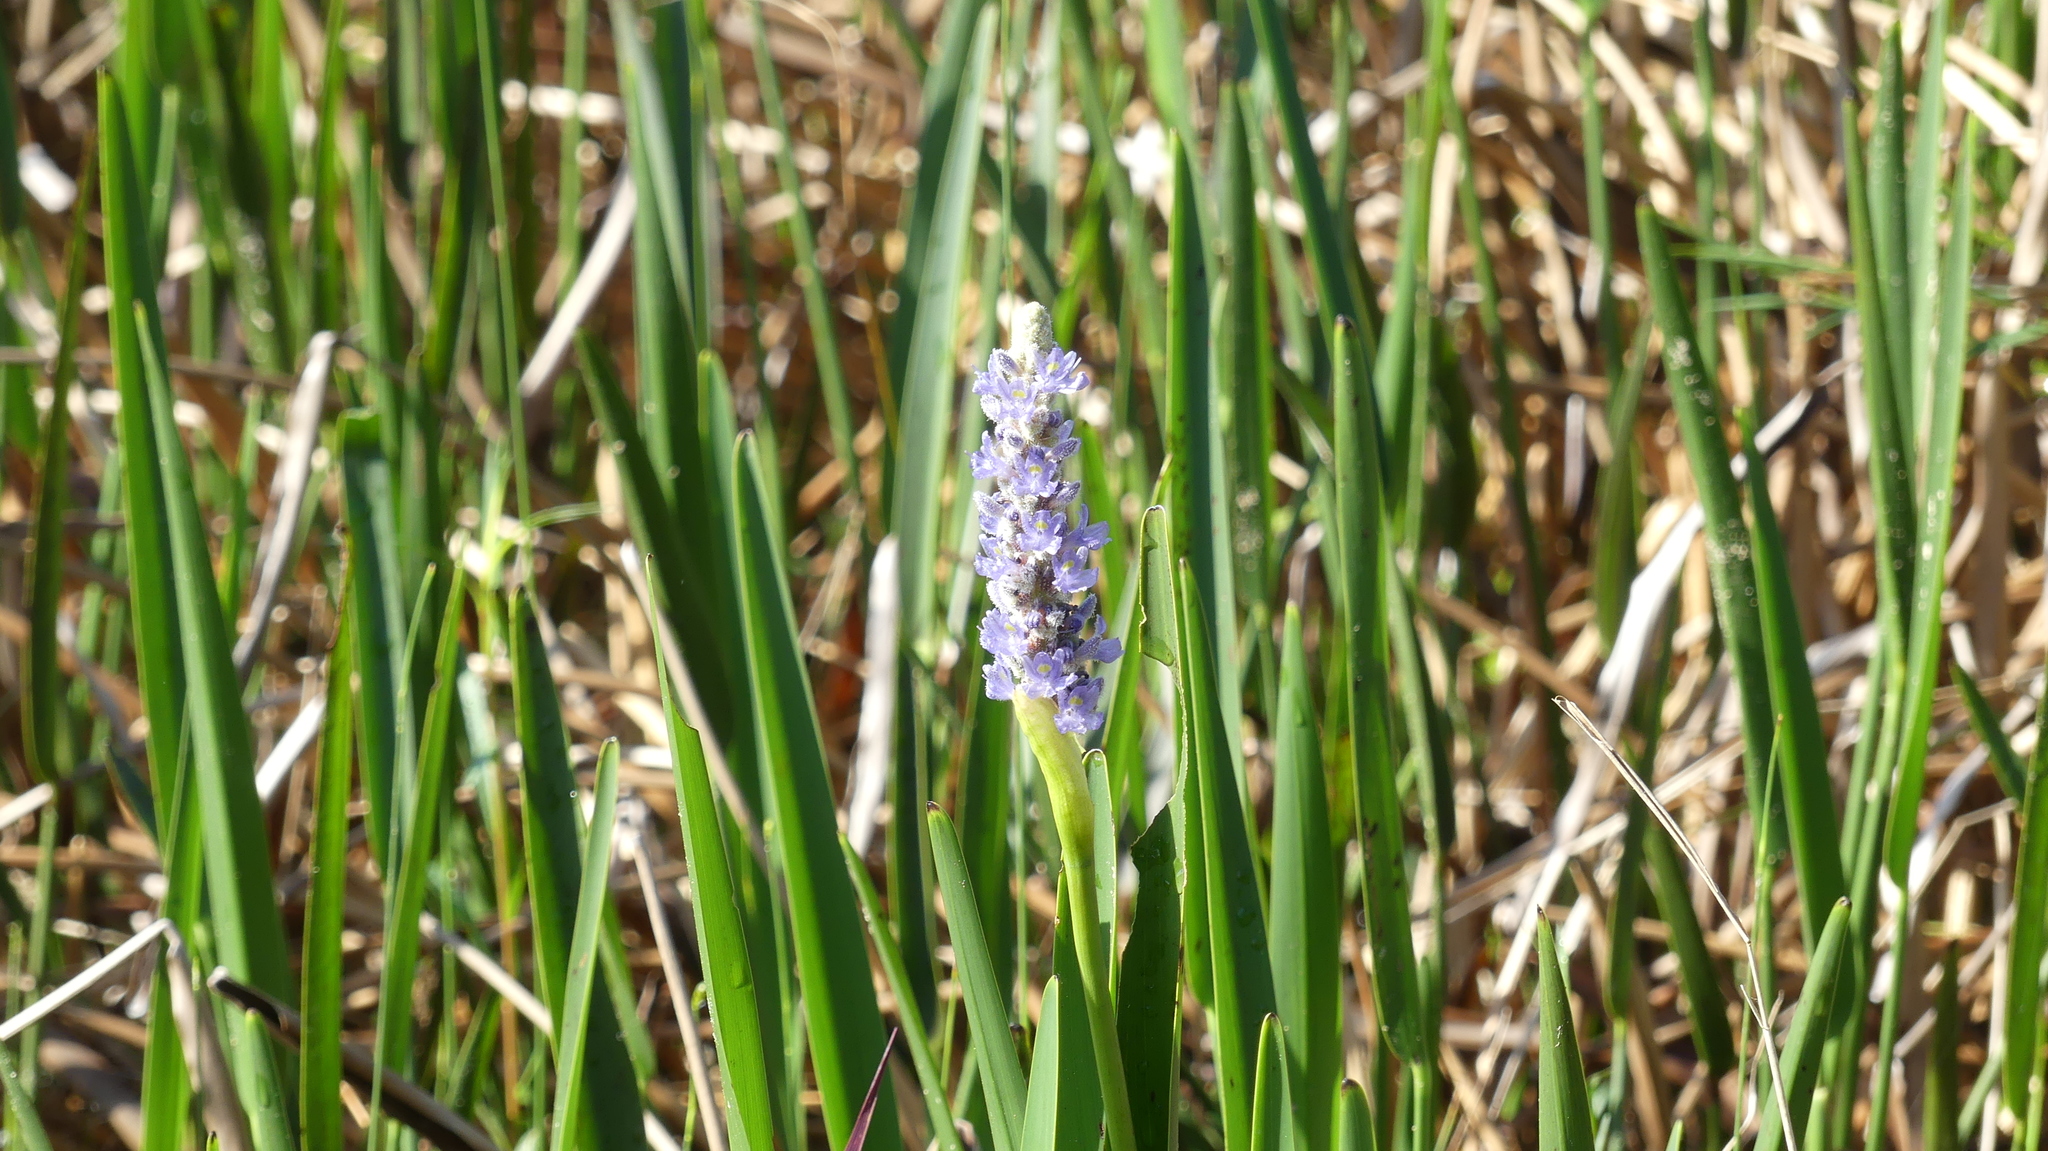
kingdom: Plantae
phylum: Tracheophyta
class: Liliopsida
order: Commelinales
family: Pontederiaceae
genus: Pontederia
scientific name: Pontederia cordata
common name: Pickerelweed
